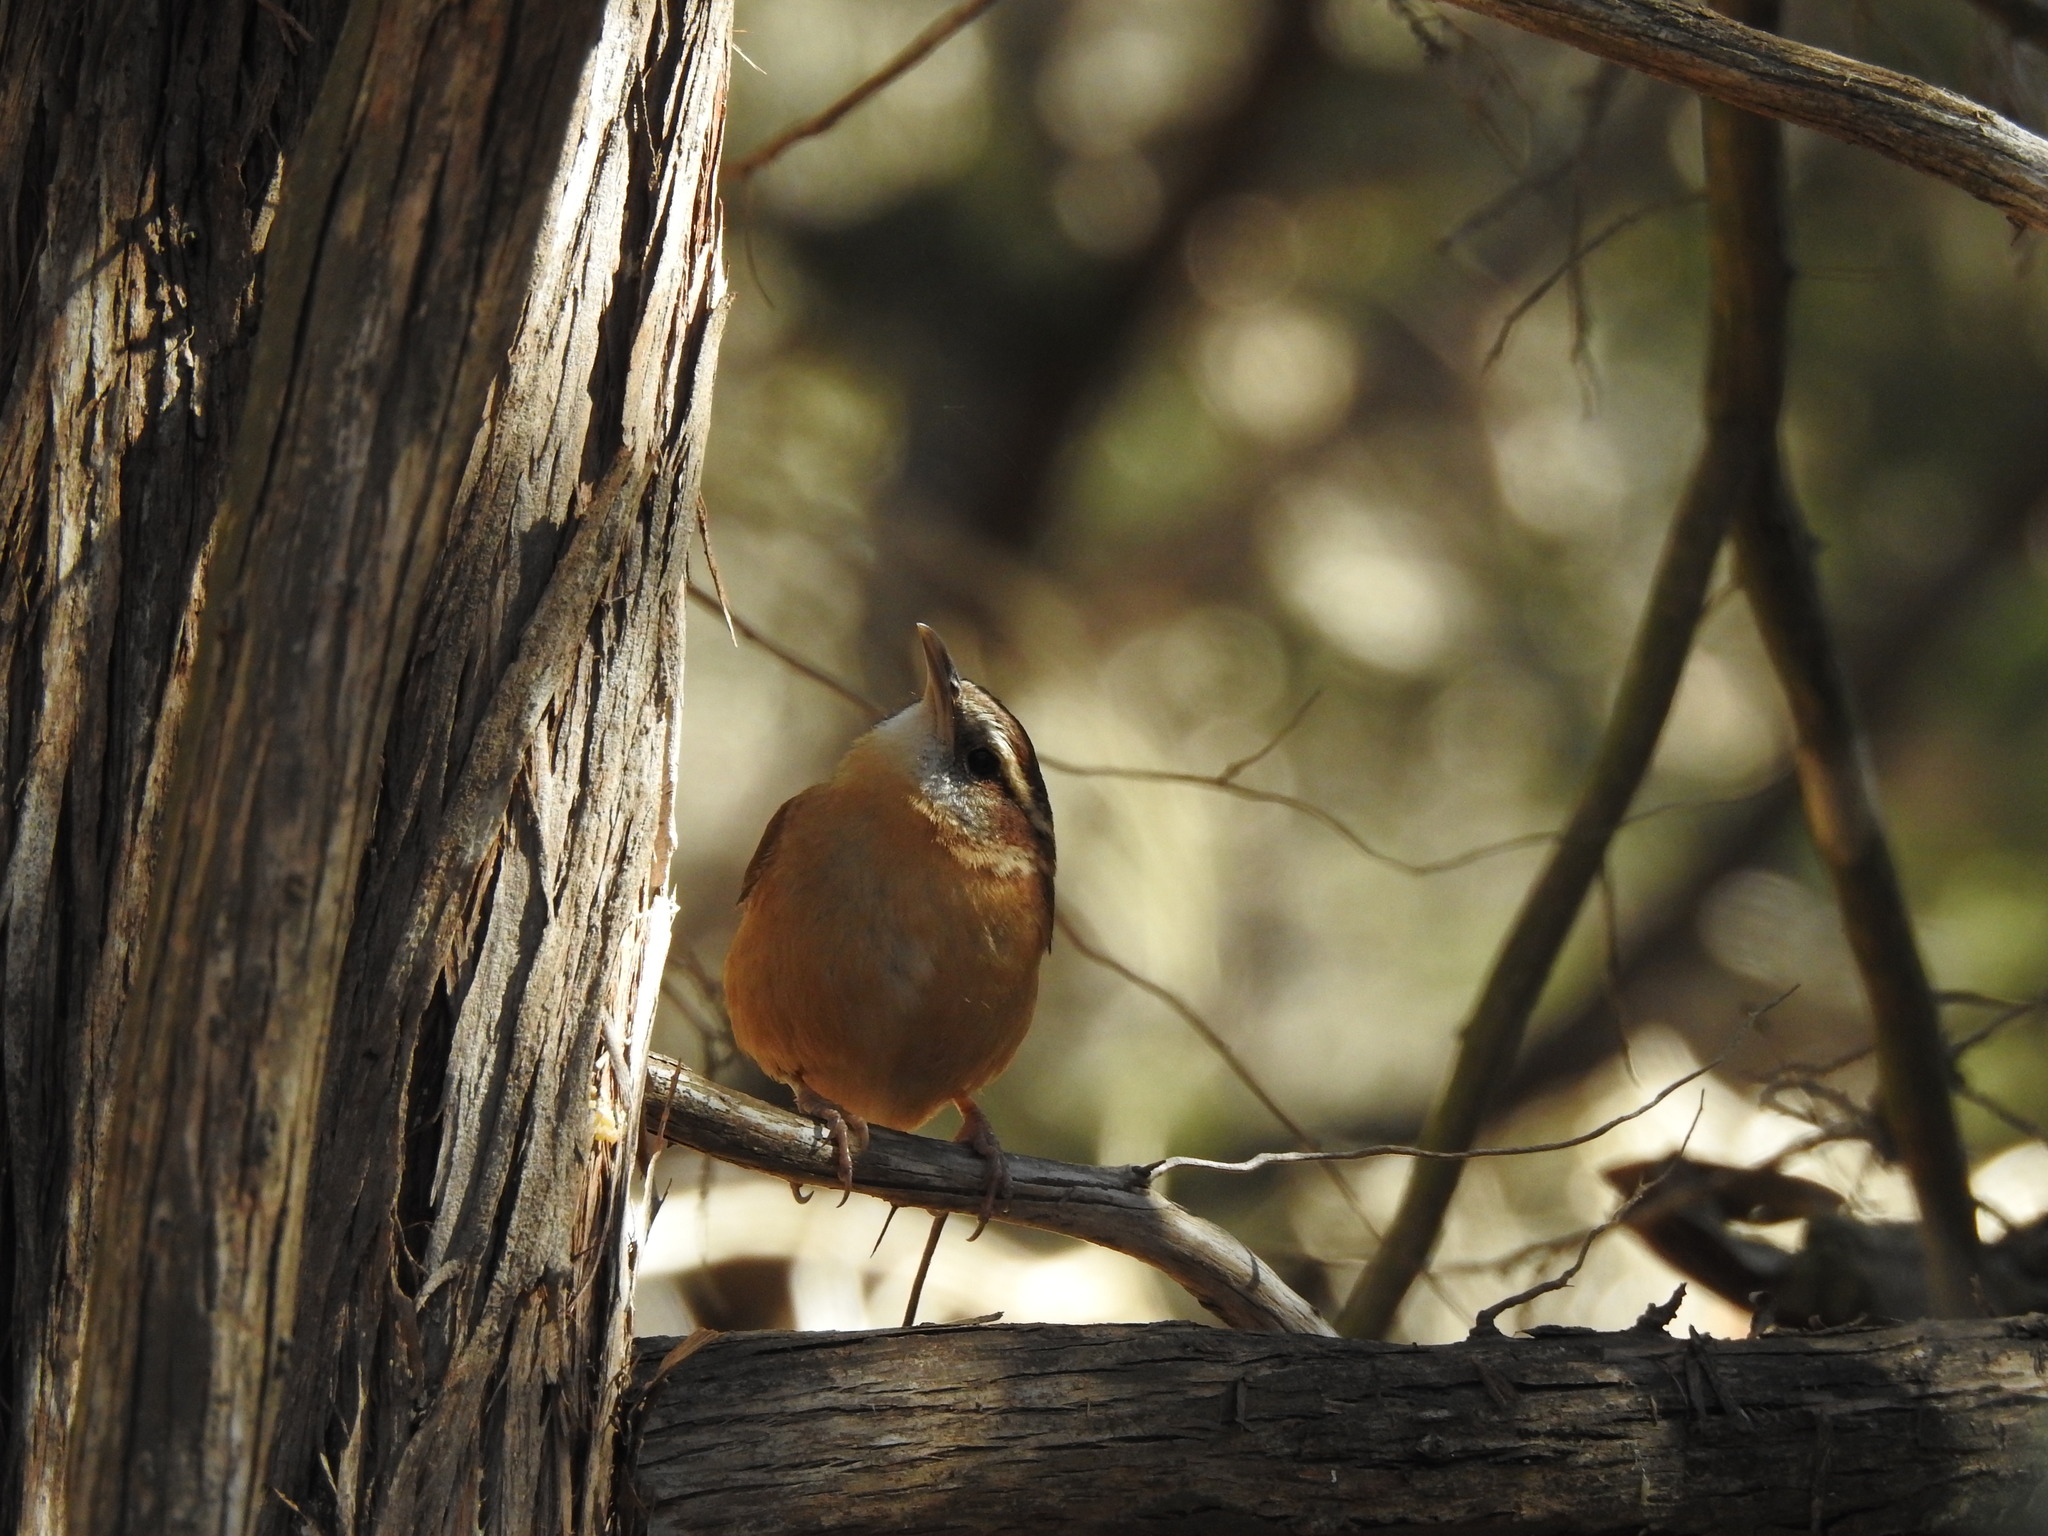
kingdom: Animalia
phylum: Chordata
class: Aves
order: Passeriformes
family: Troglodytidae
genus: Thryothorus
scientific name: Thryothorus ludovicianus
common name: Carolina wren
